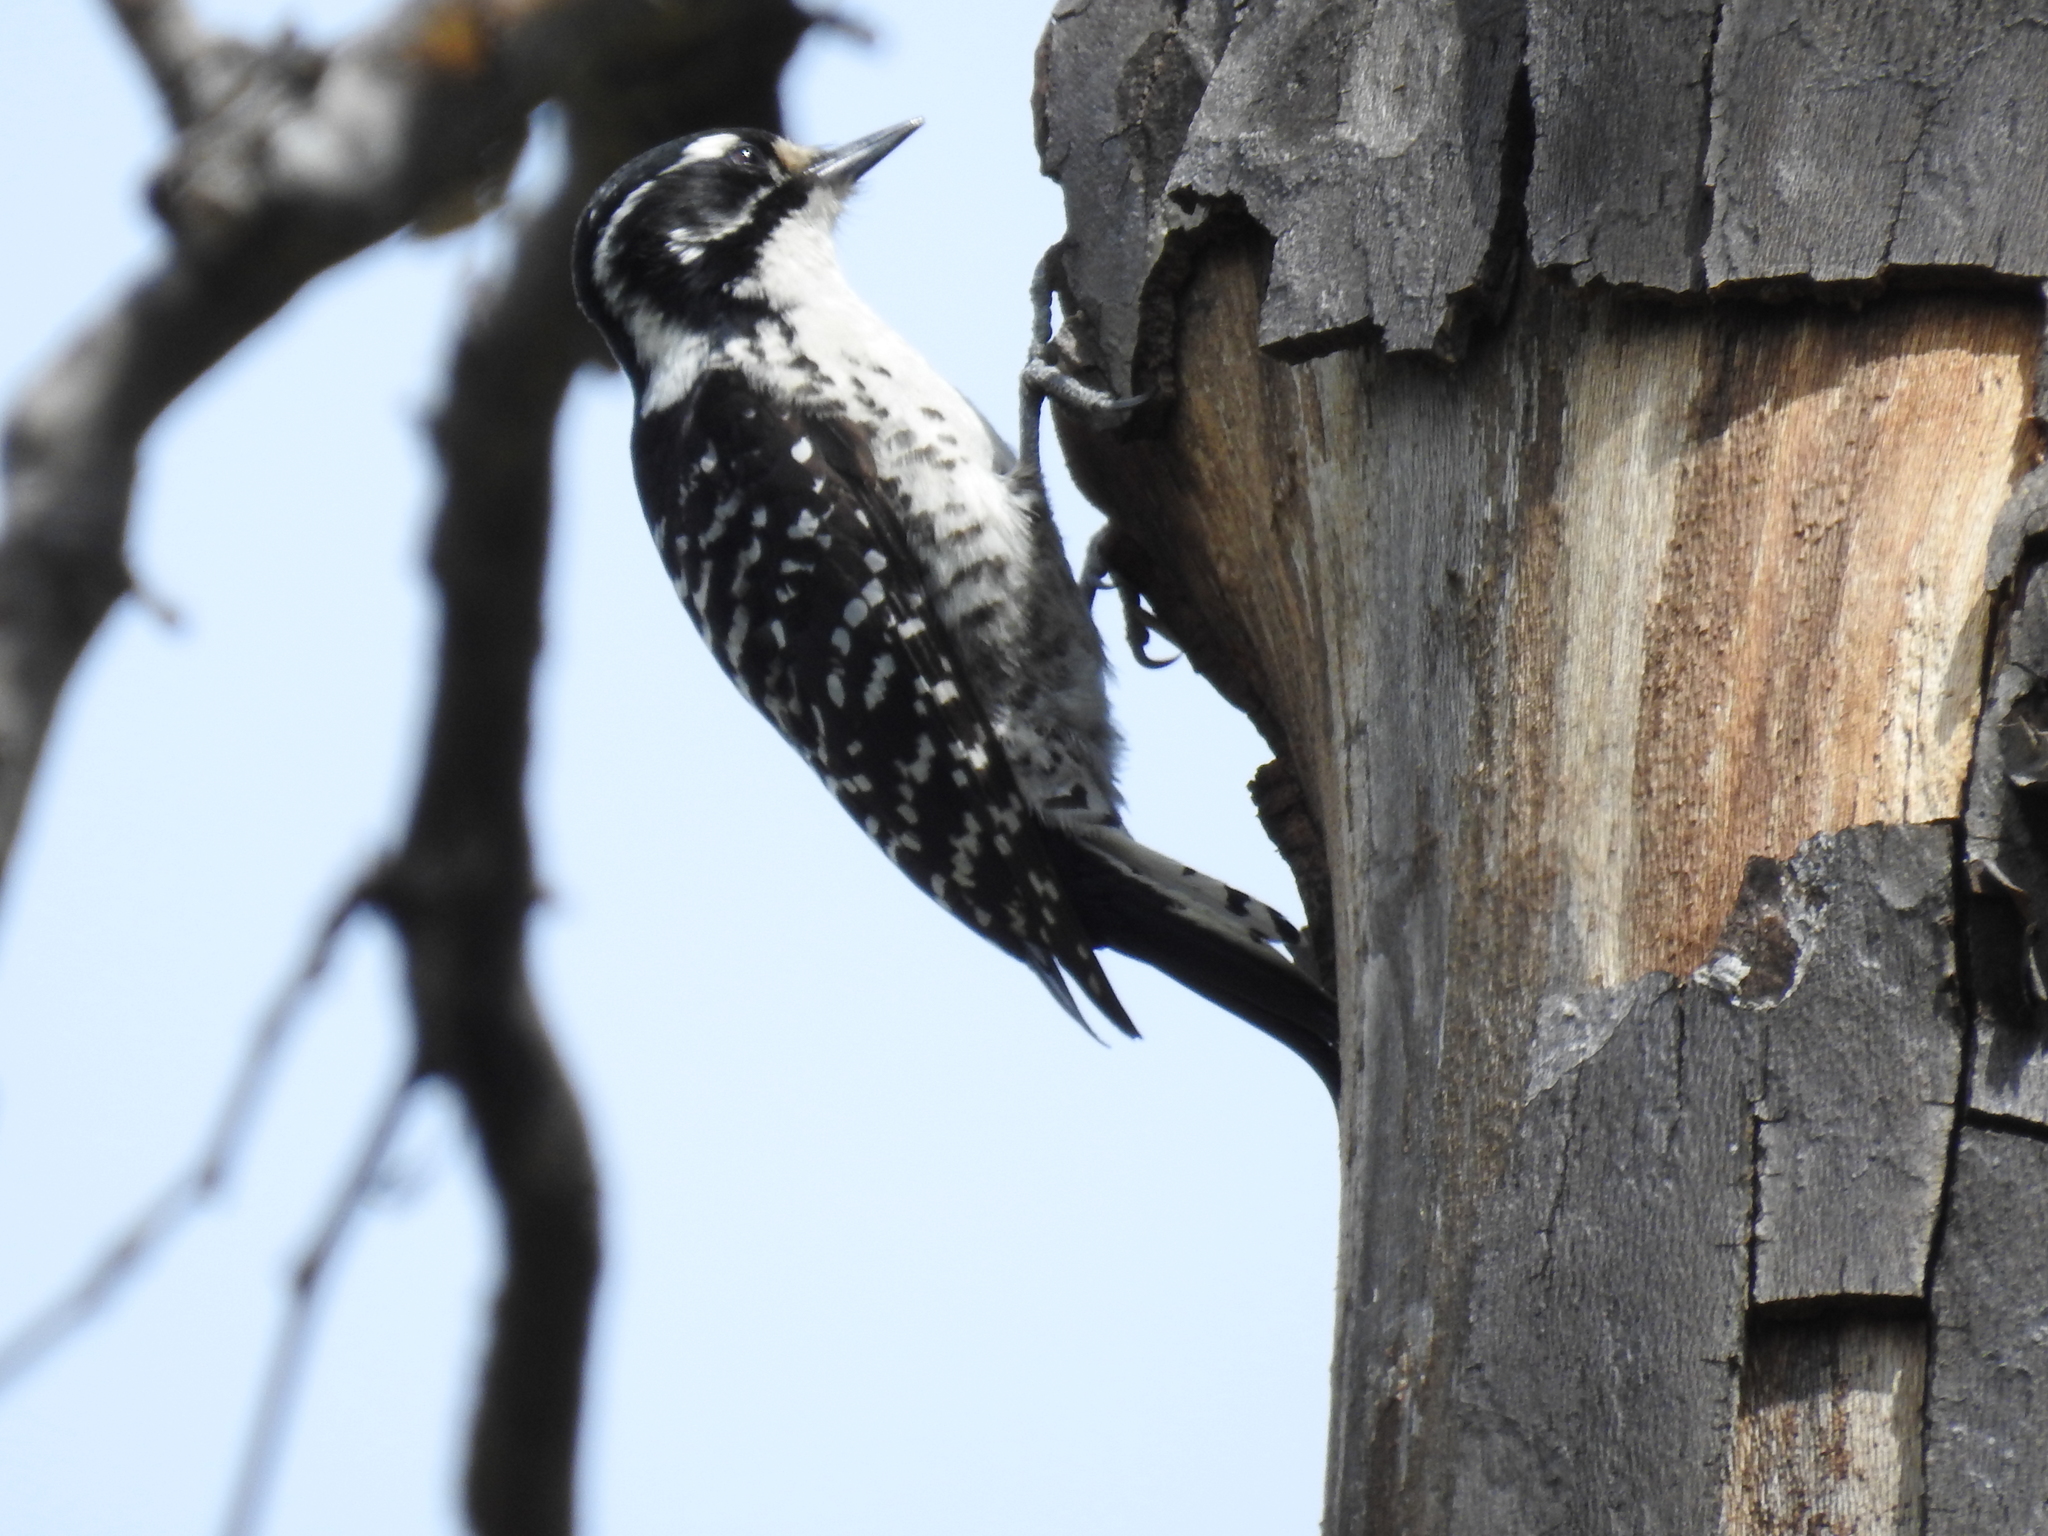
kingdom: Animalia
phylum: Chordata
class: Aves
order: Piciformes
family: Picidae
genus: Dryobates
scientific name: Dryobates nuttallii
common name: Nuttall's woodpecker
